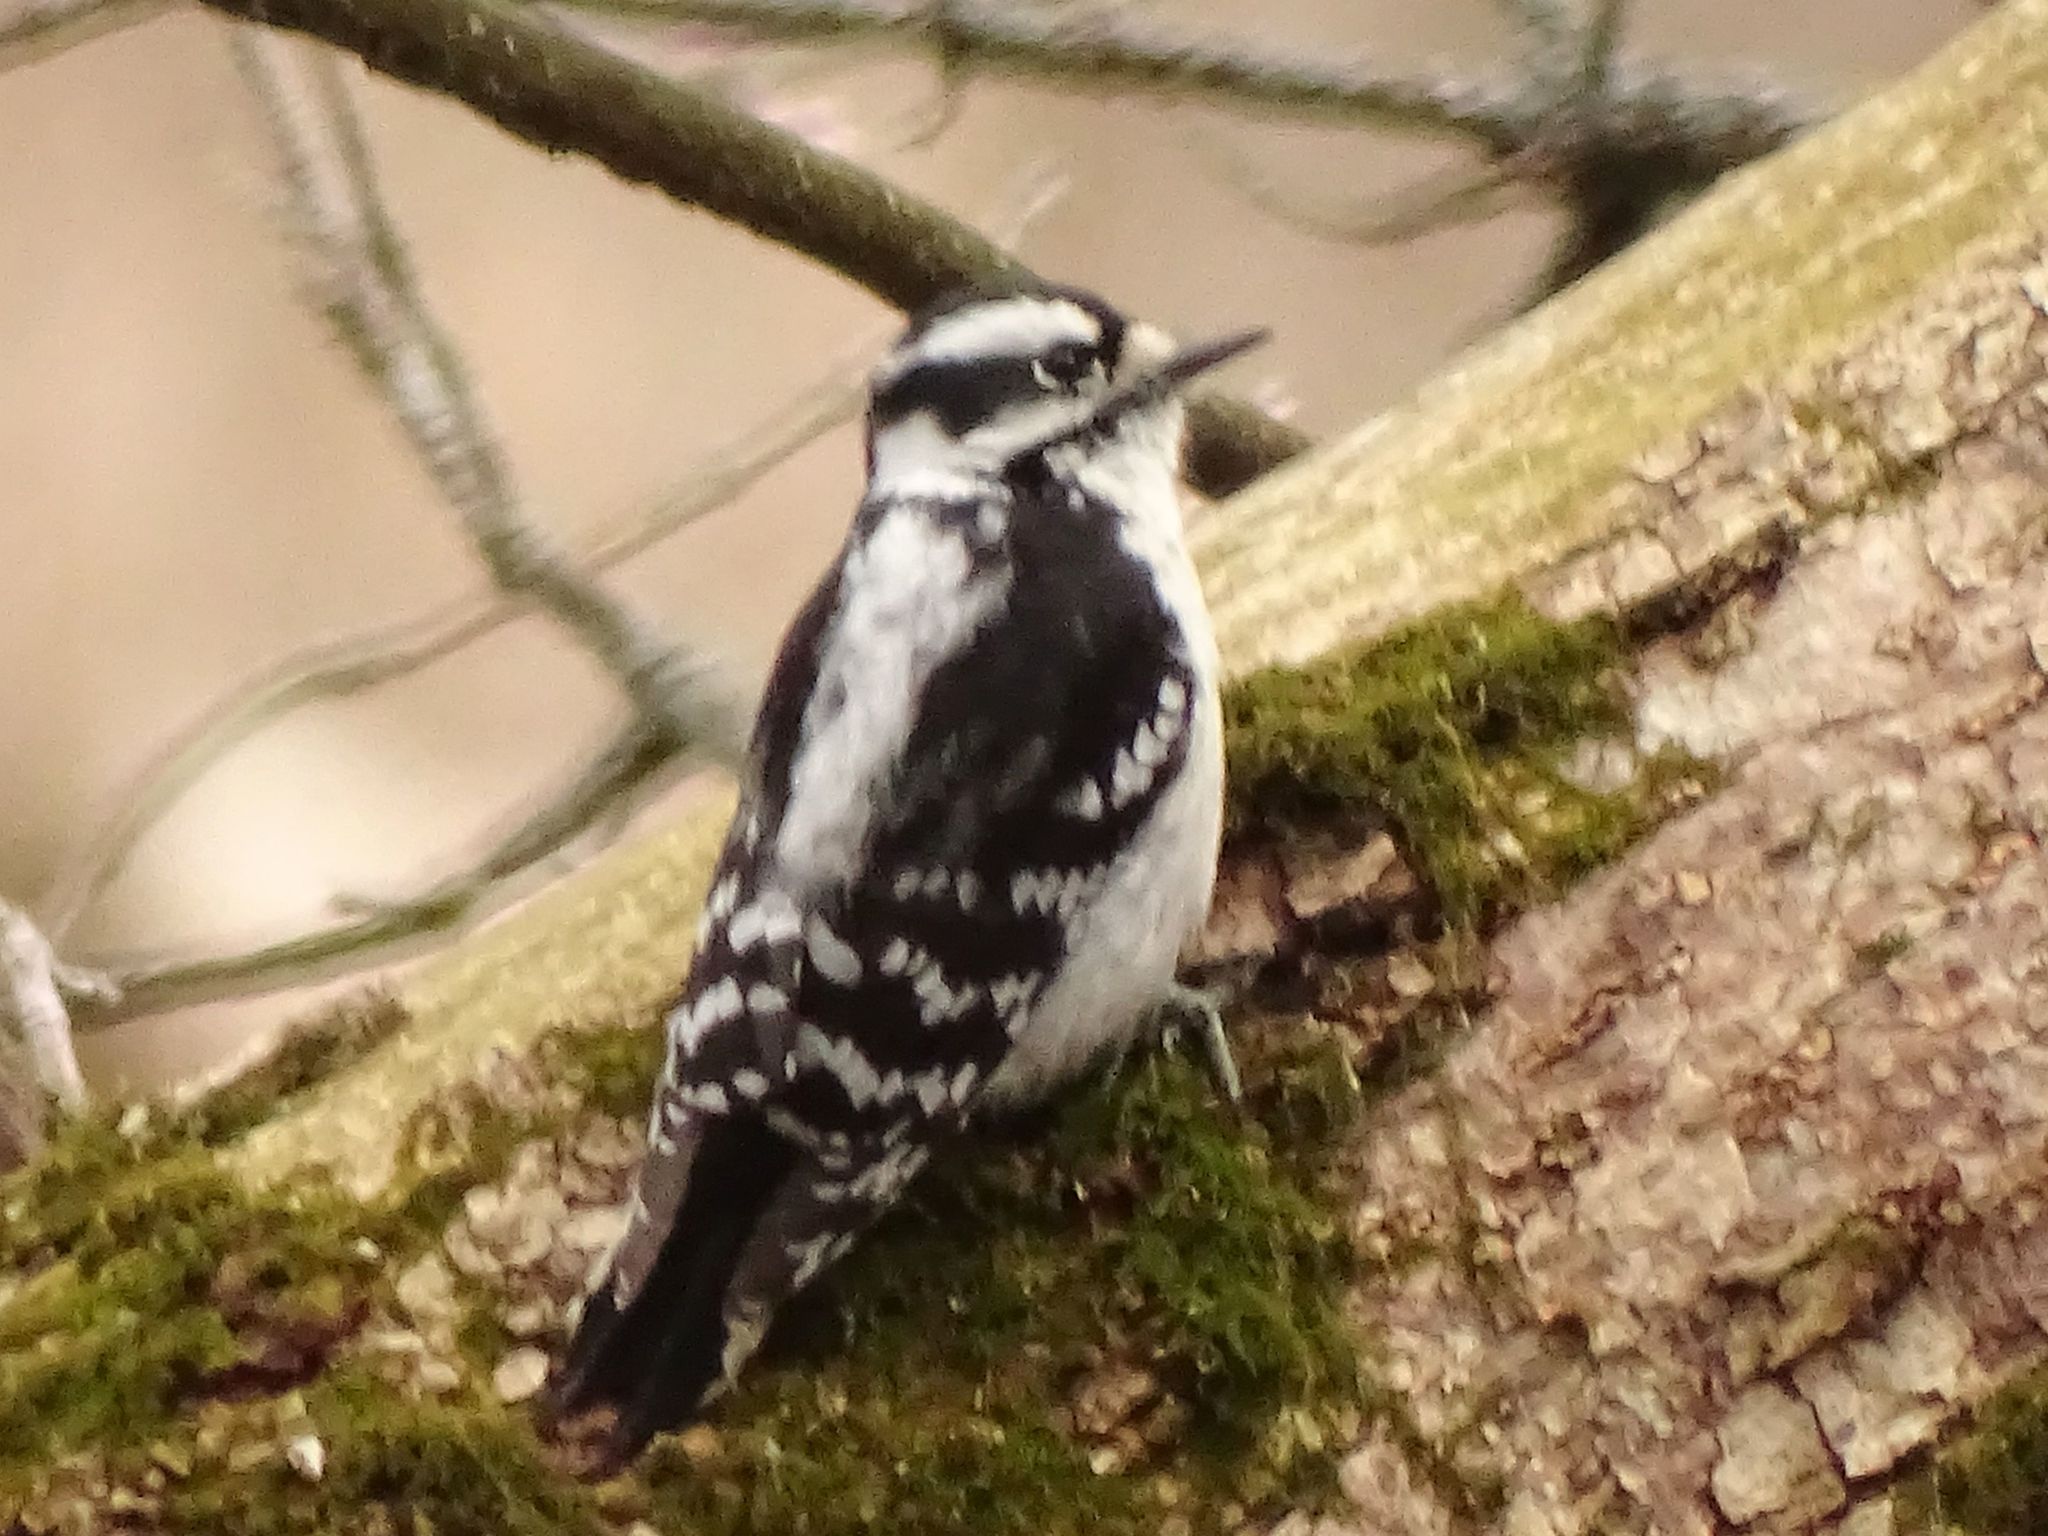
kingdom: Animalia
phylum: Chordata
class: Aves
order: Piciformes
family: Picidae
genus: Dryobates
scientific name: Dryobates pubescens
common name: Downy woodpecker
